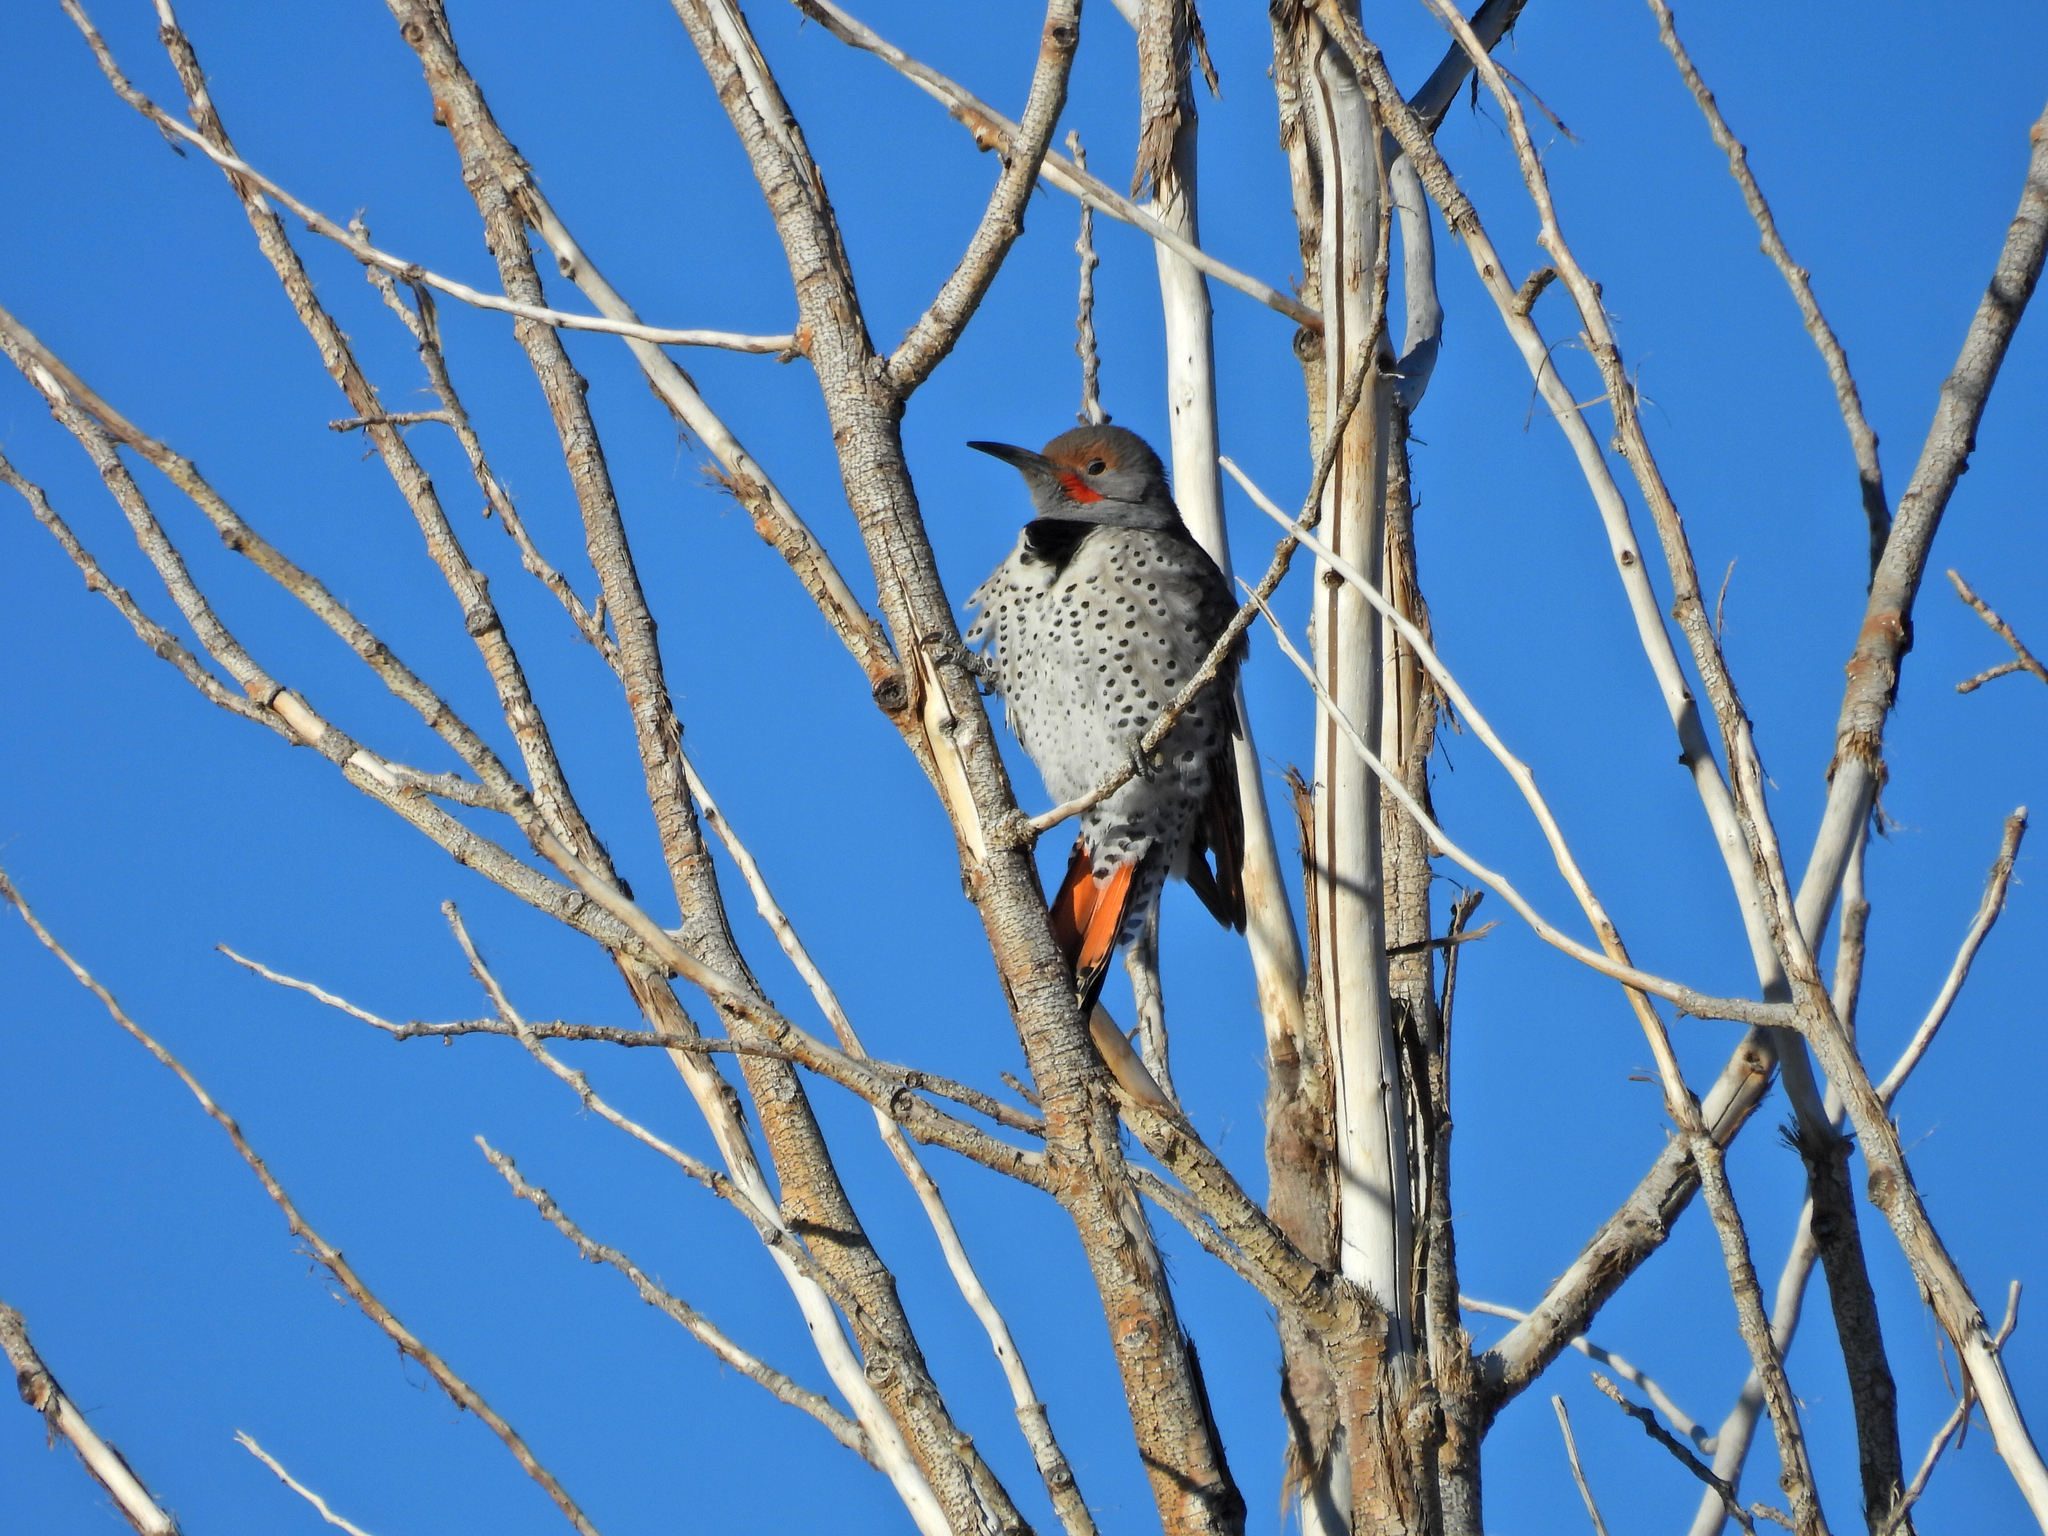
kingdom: Animalia
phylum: Chordata
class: Aves
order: Piciformes
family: Picidae
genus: Colaptes
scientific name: Colaptes auratus
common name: Northern flicker
